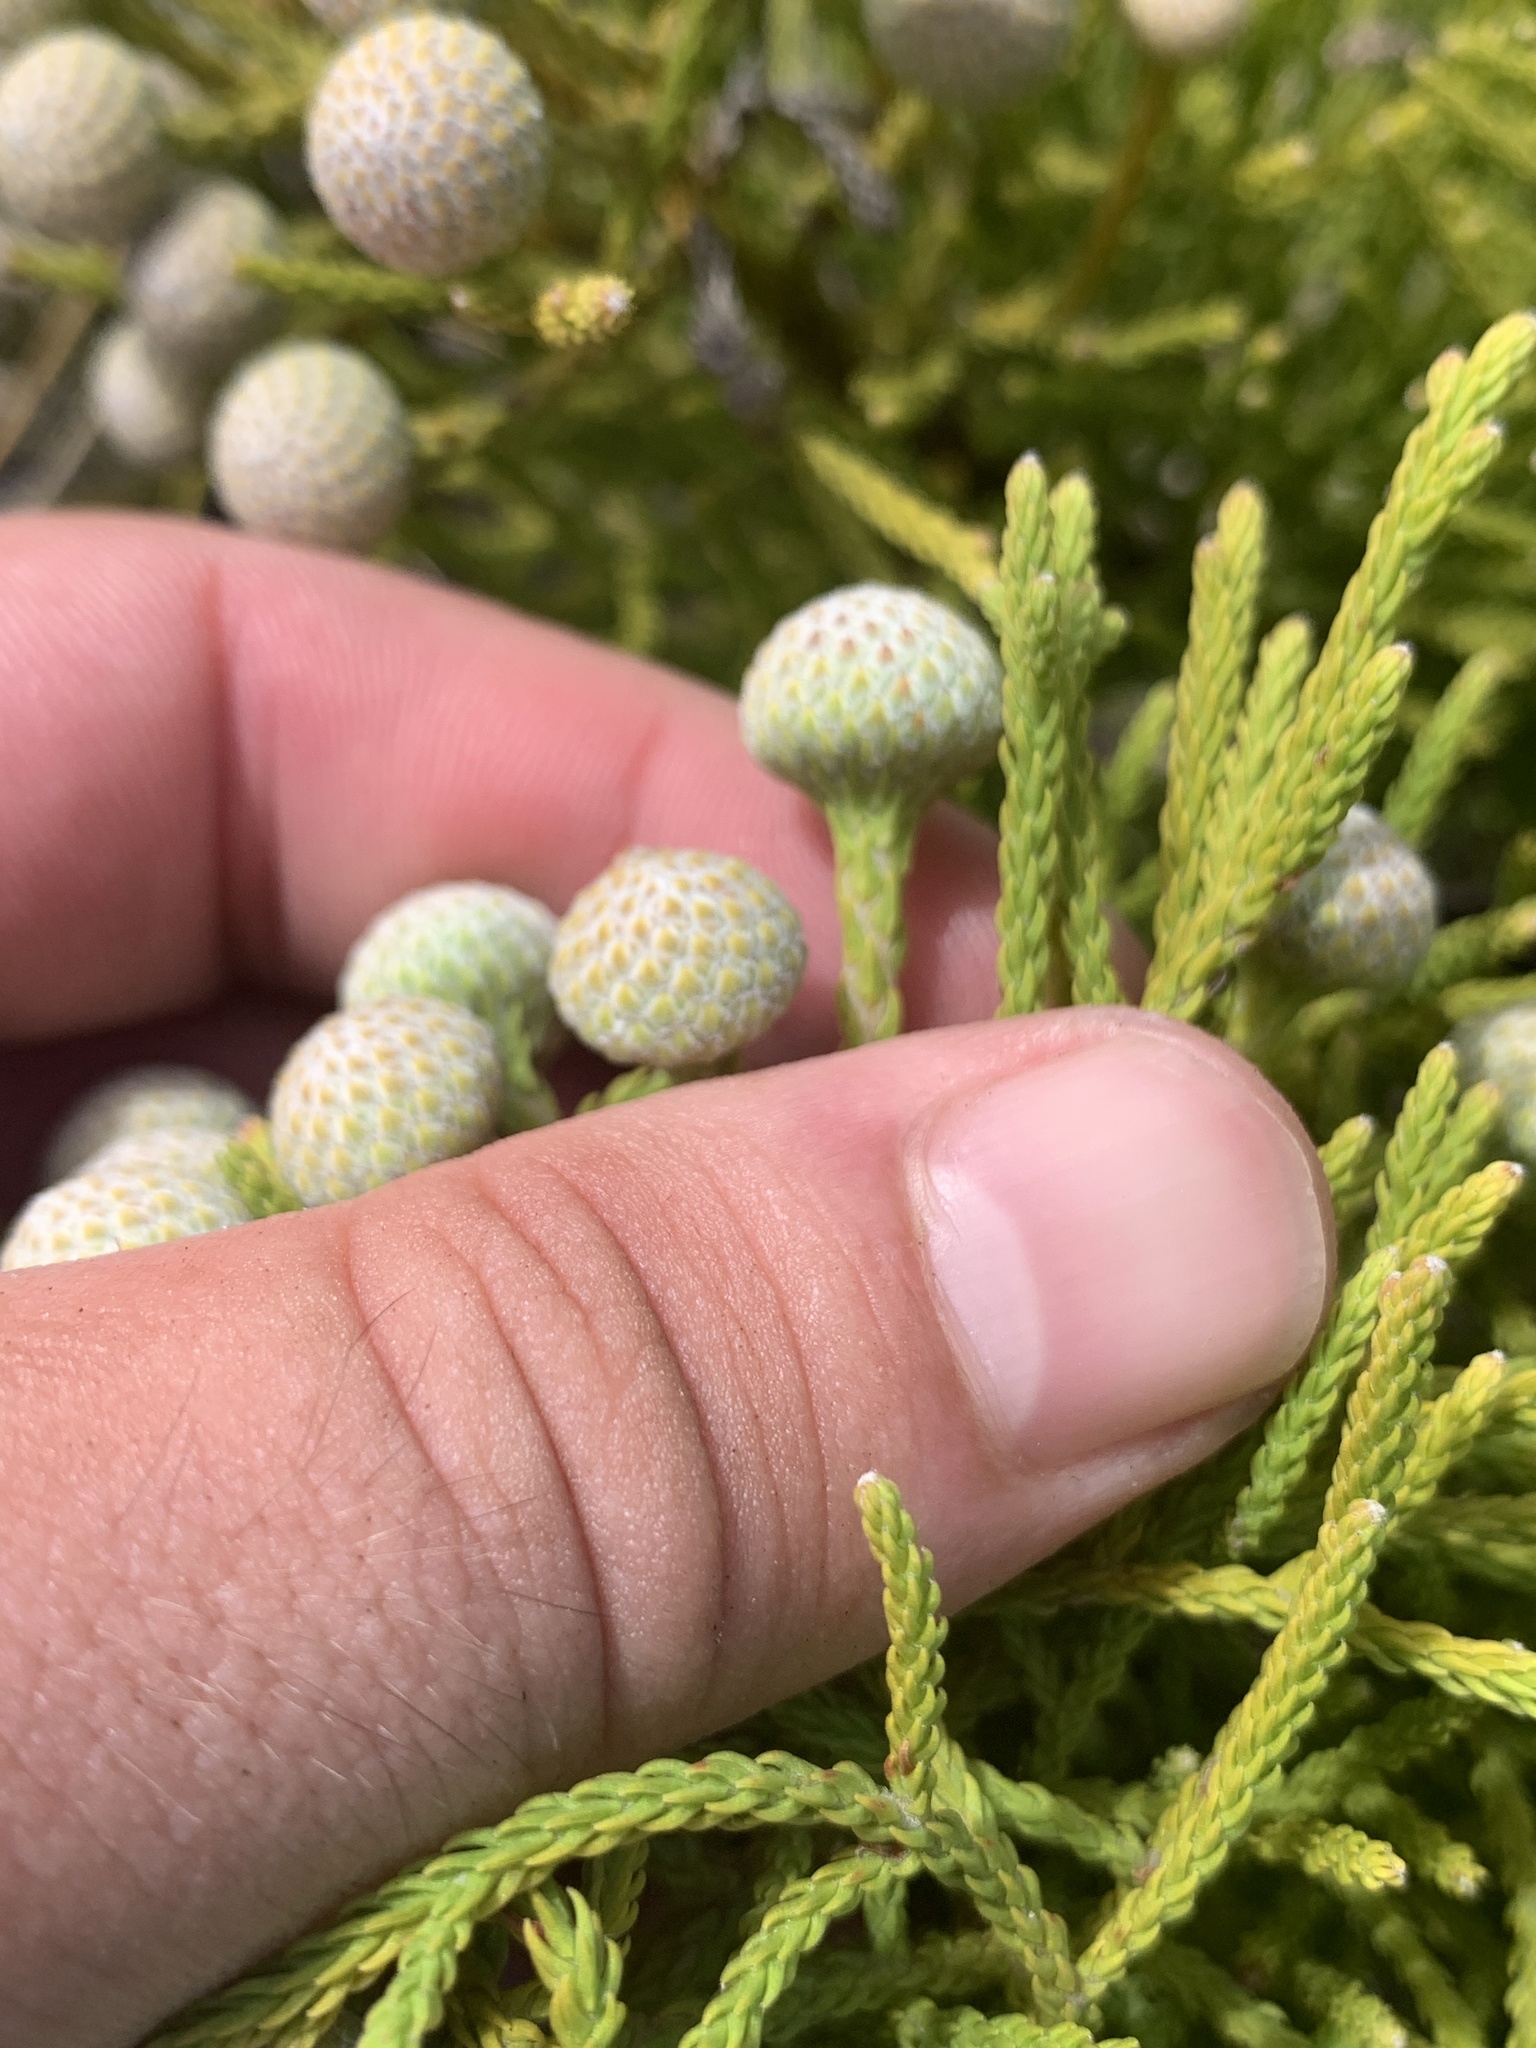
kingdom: Plantae
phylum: Tracheophyta
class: Magnoliopsida
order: Bruniales
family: Bruniaceae
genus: Brunia
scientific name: Brunia noduliflora
